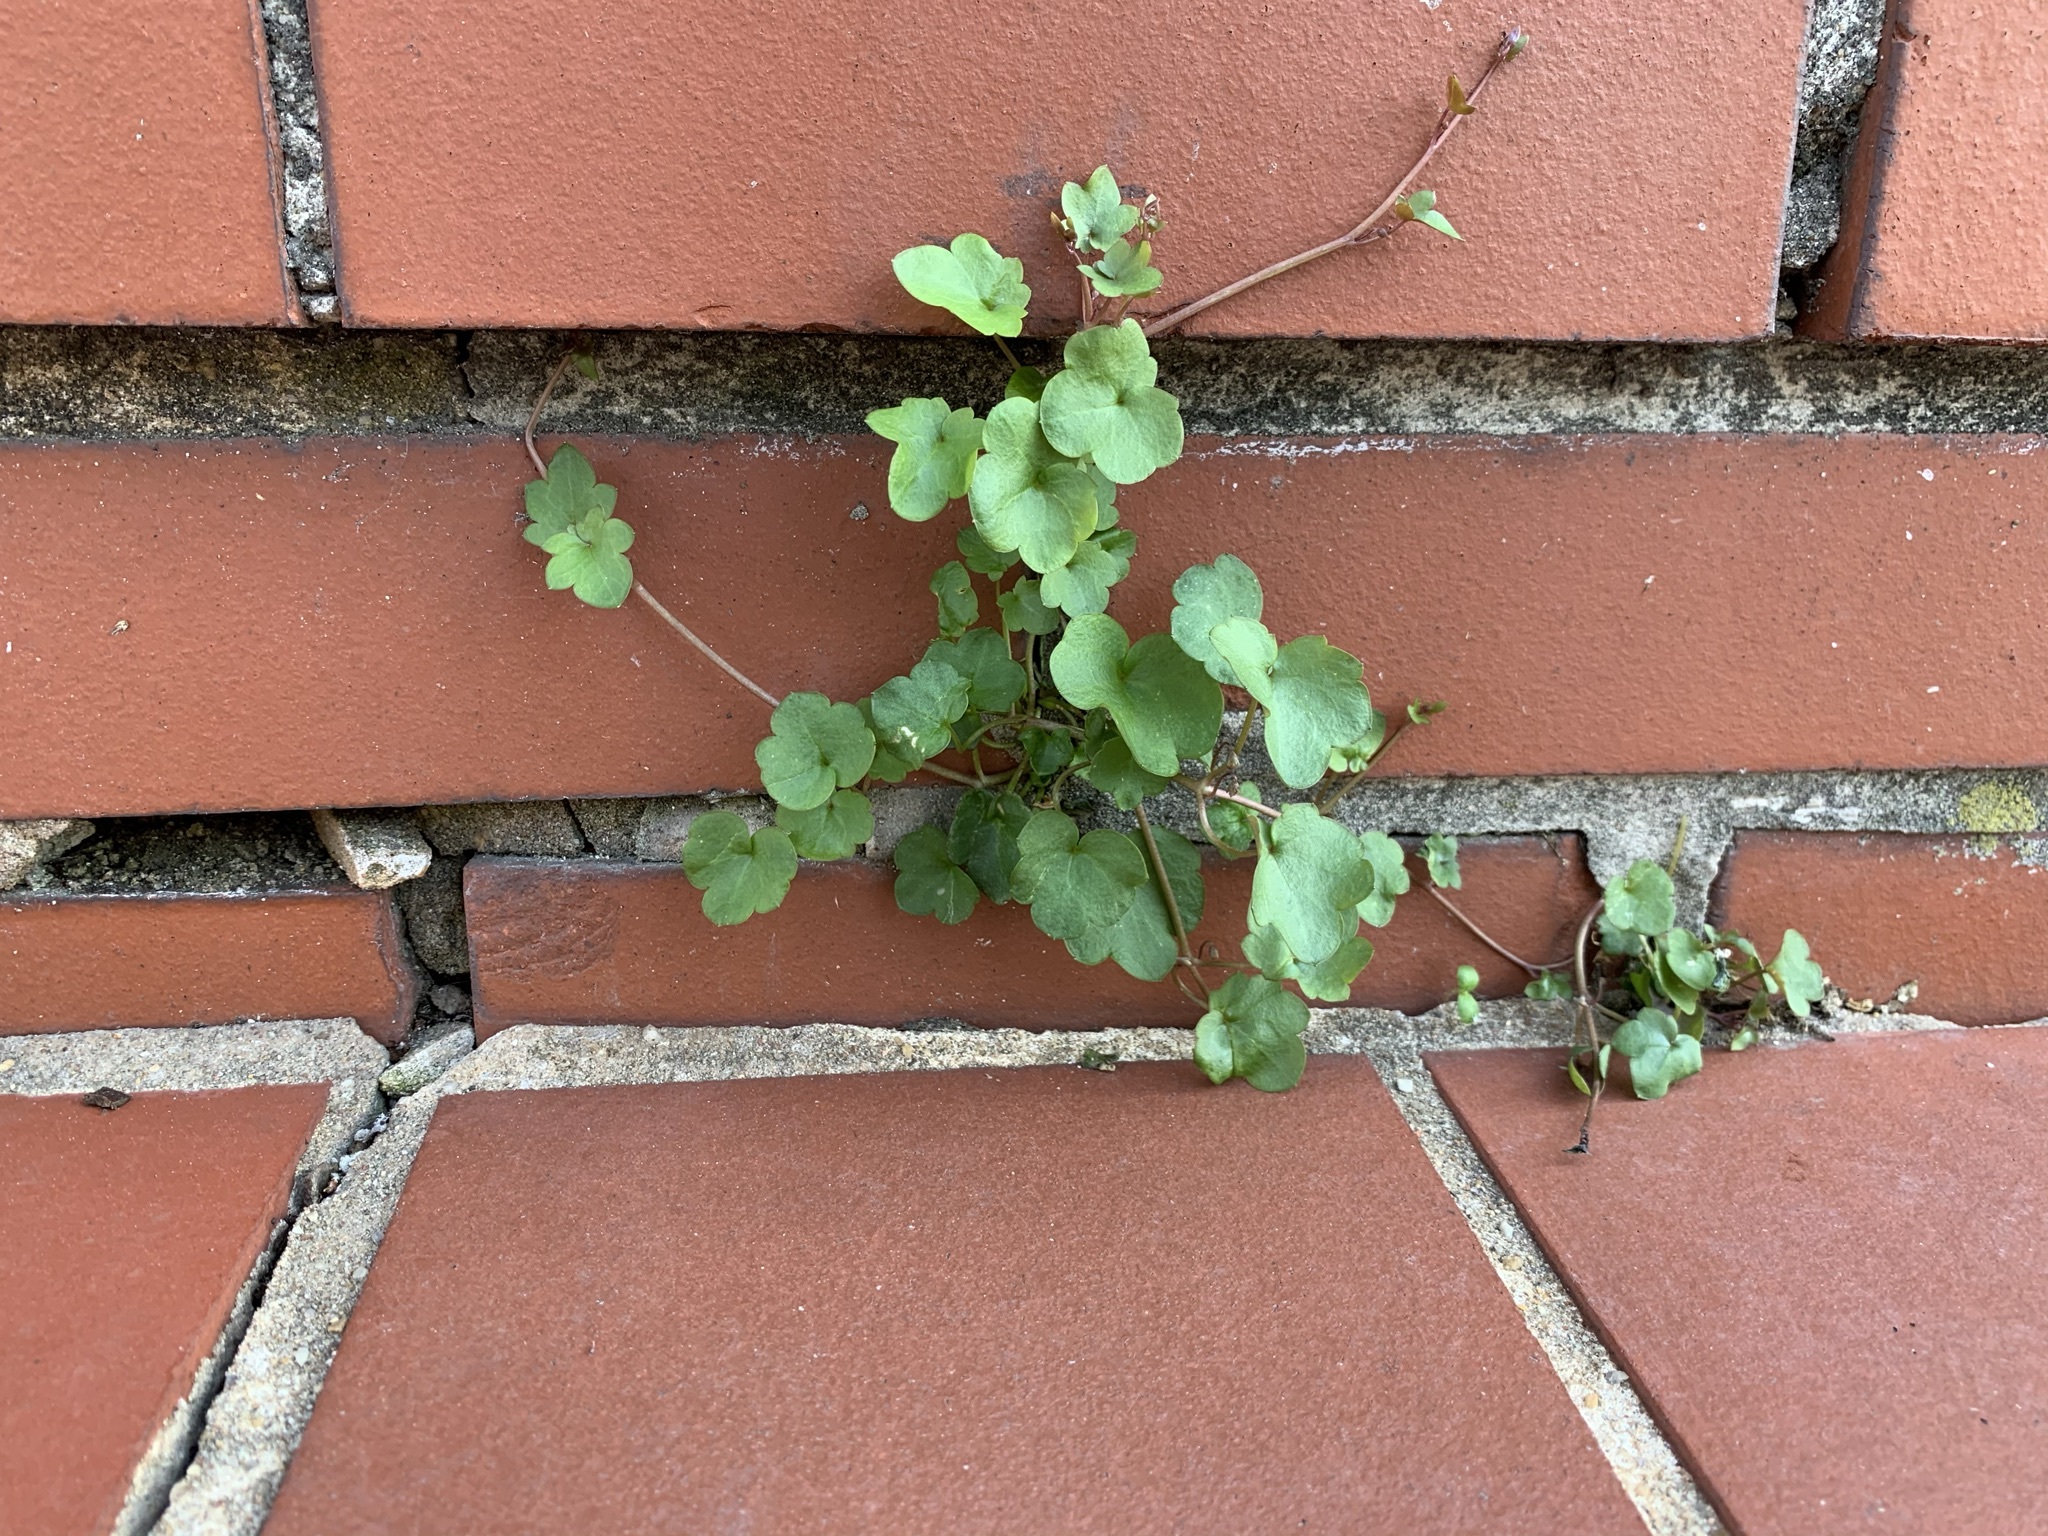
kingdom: Plantae
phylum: Tracheophyta
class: Magnoliopsida
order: Lamiales
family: Plantaginaceae
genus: Cymbalaria
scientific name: Cymbalaria muralis
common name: Ivy-leaved toadflax
